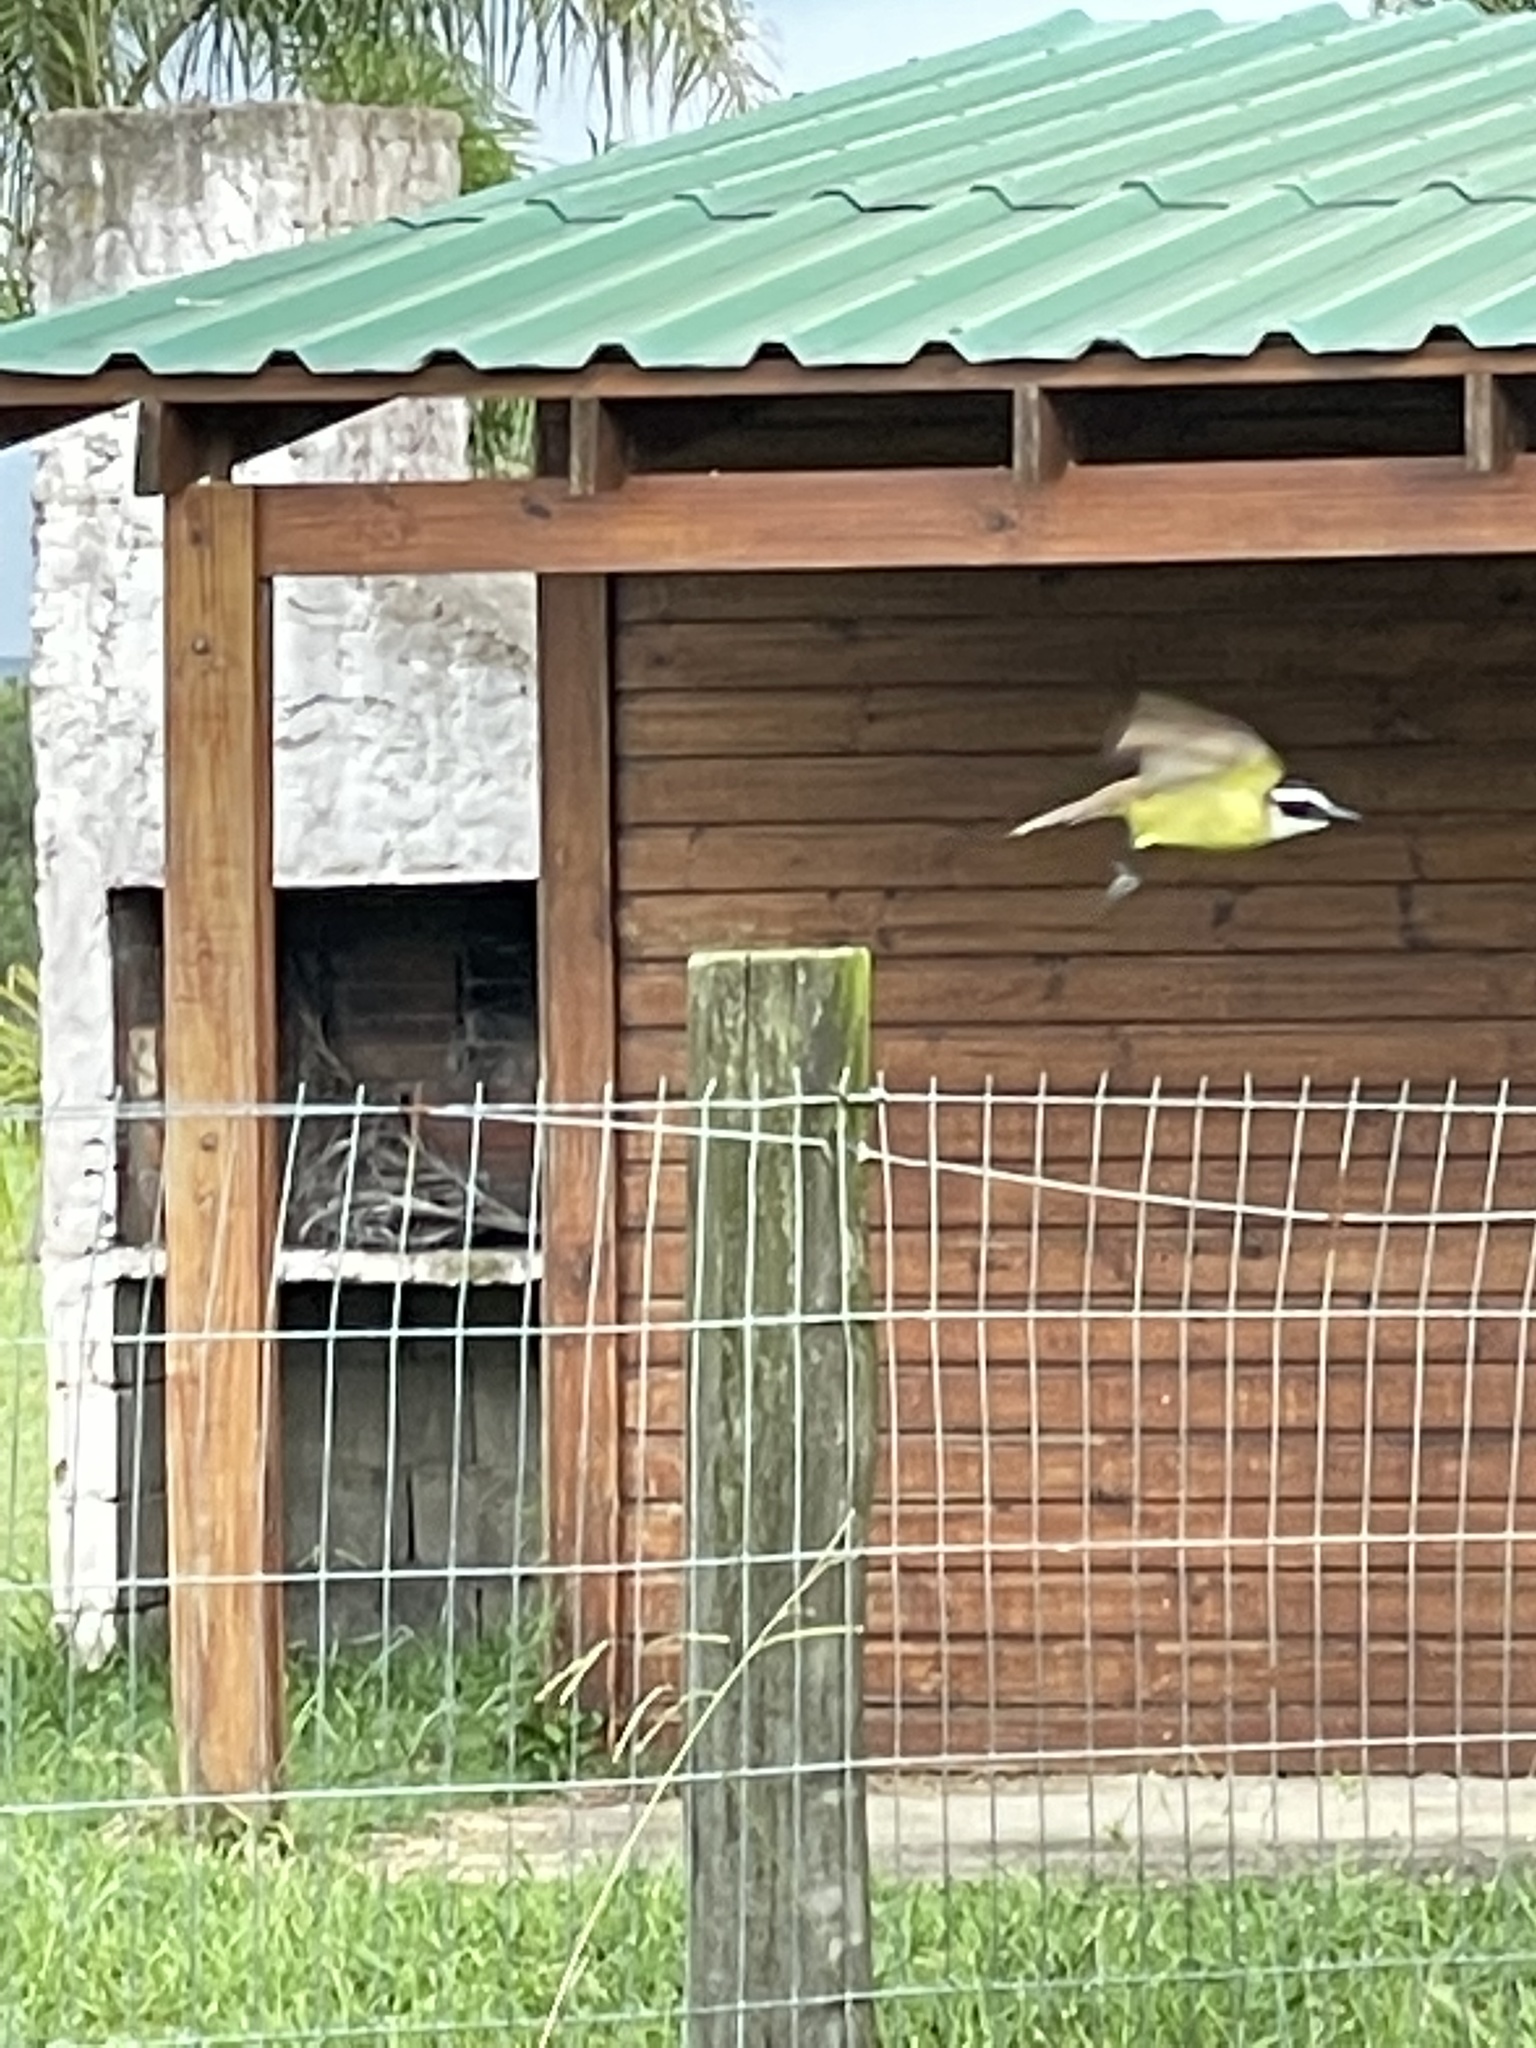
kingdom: Animalia
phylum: Chordata
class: Aves
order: Passeriformes
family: Tyrannidae
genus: Pitangus
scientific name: Pitangus sulphuratus
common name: Great kiskadee
